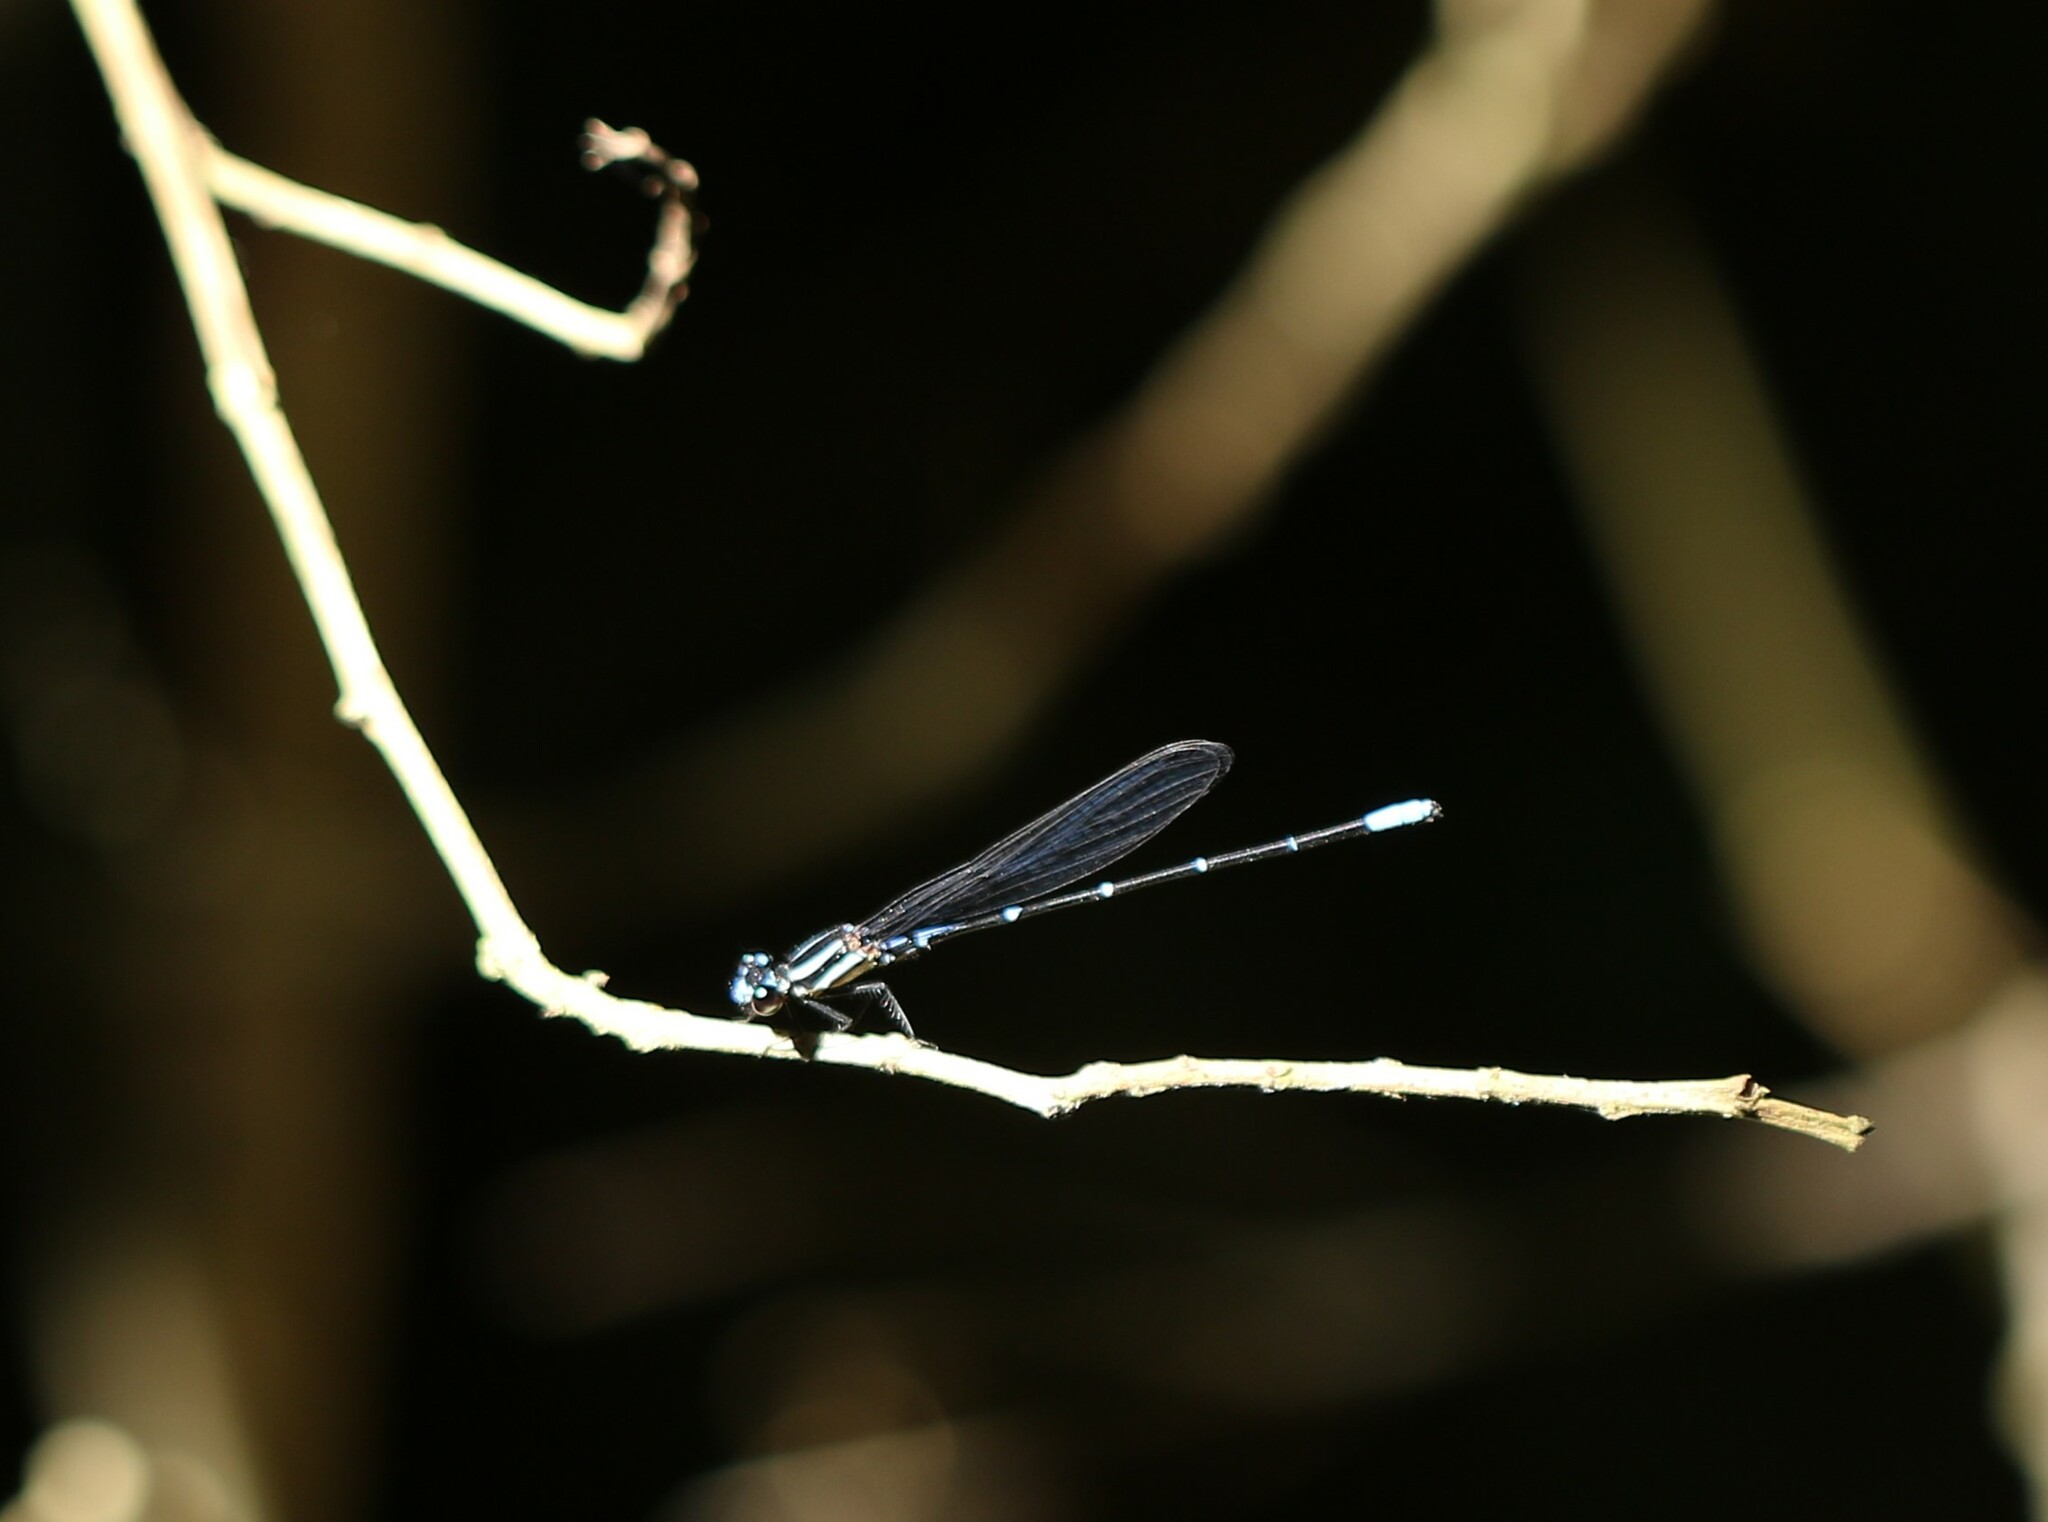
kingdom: Animalia
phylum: Arthropoda
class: Insecta
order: Odonata
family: Coenagrionidae
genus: Argia
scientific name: Argia oculata
